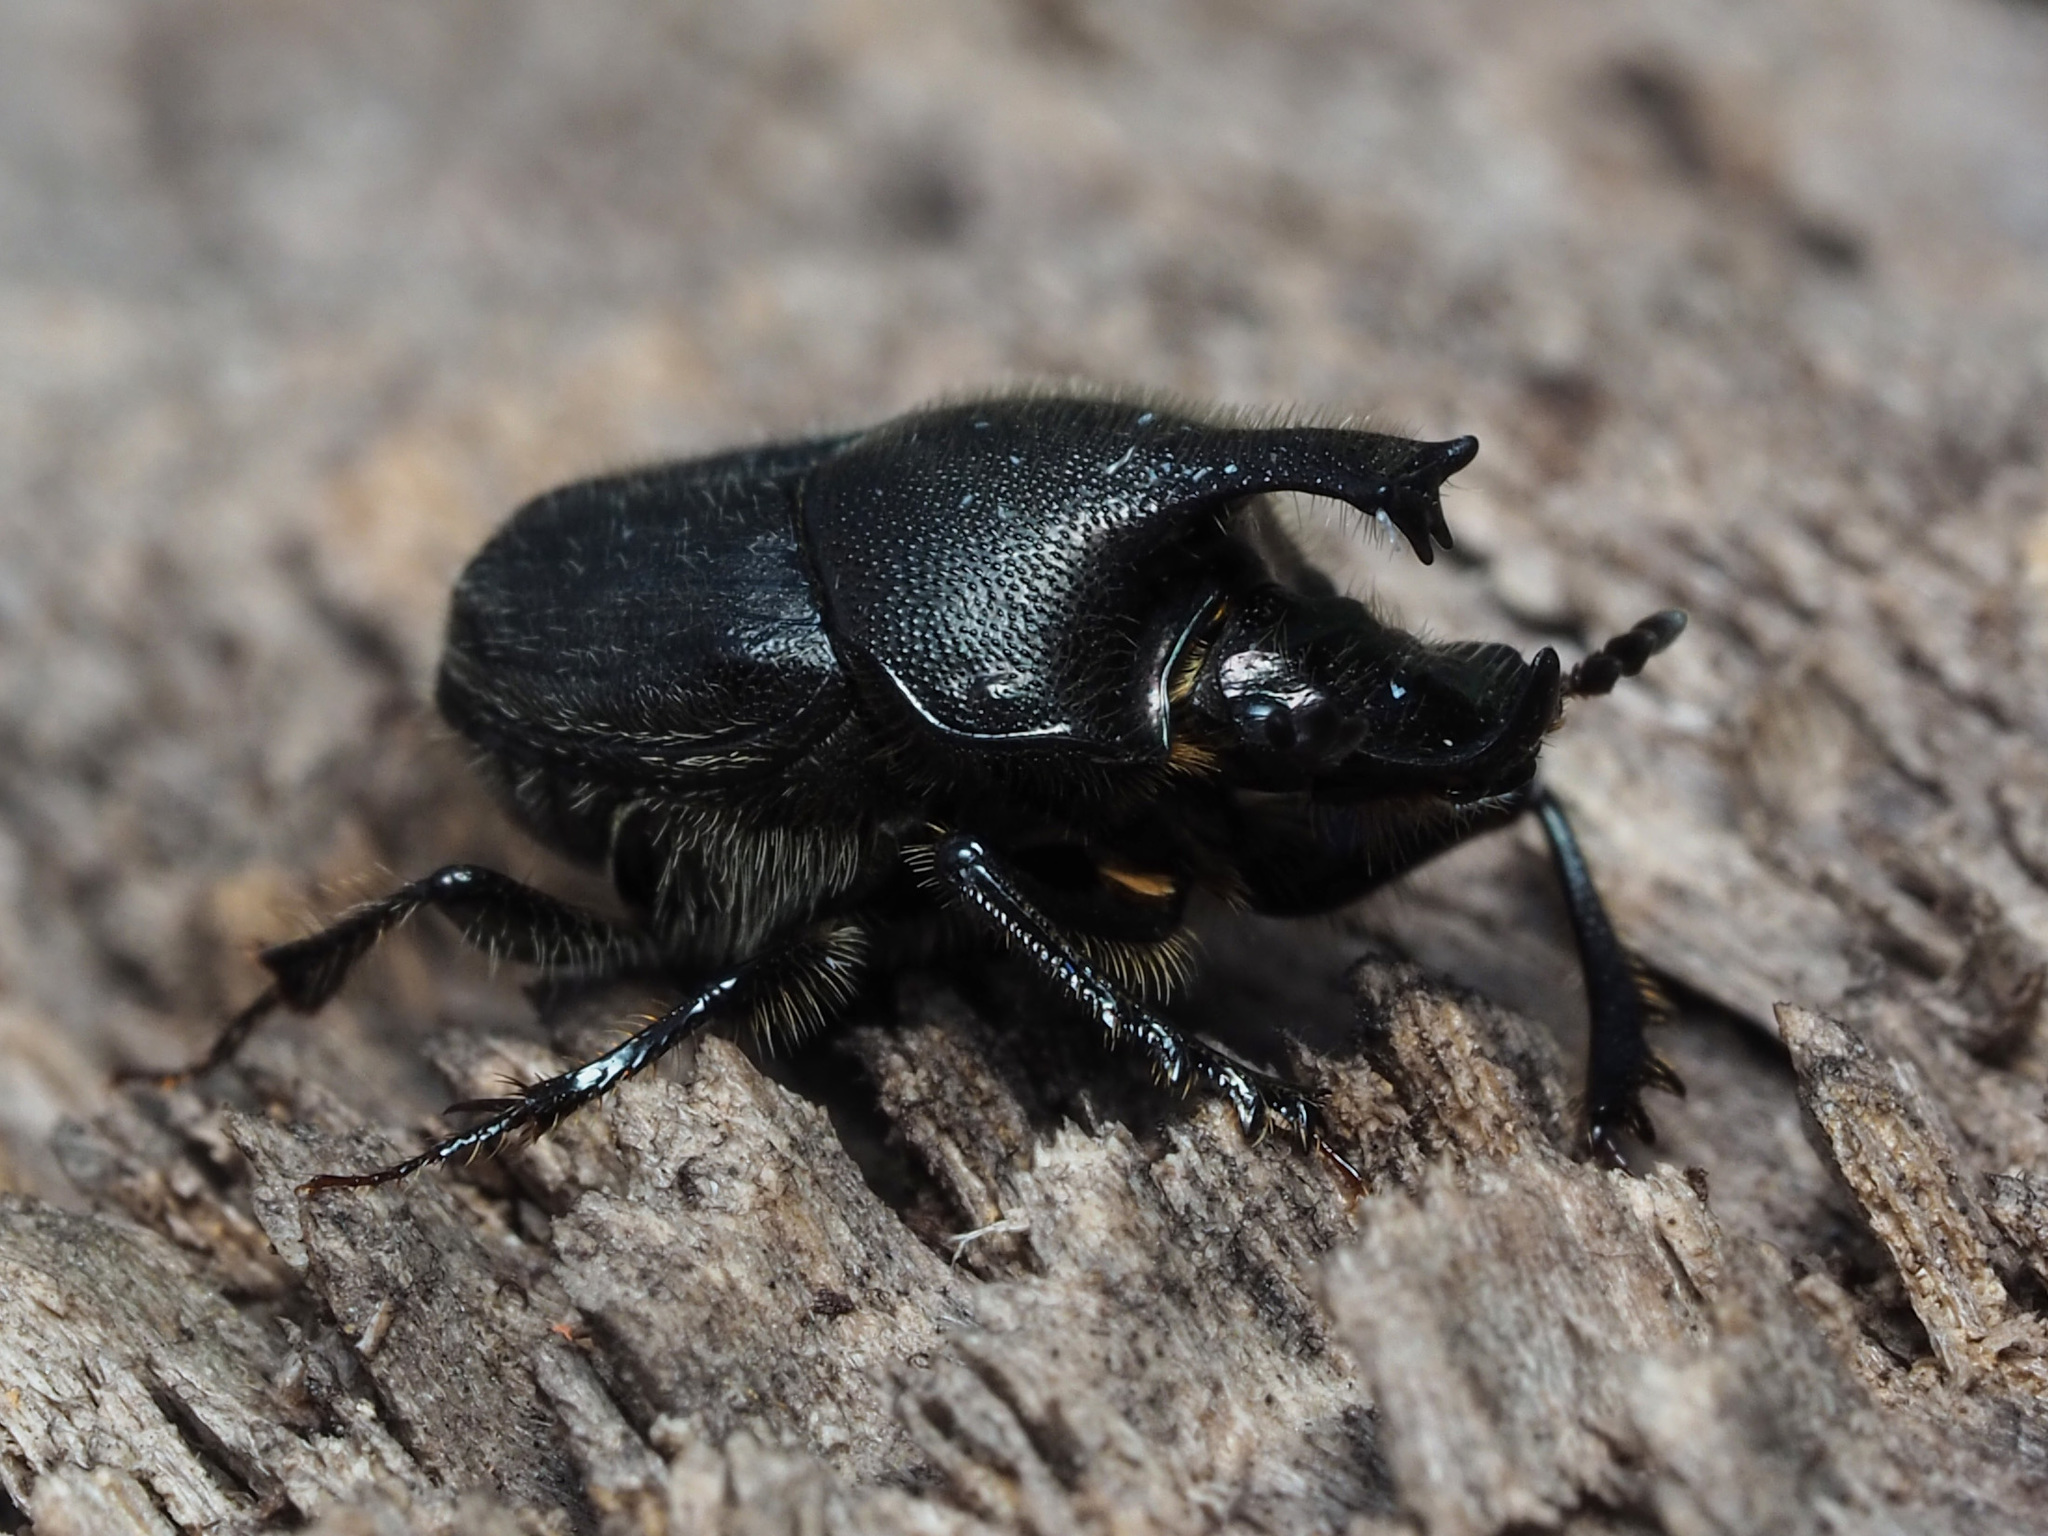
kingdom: Animalia
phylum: Arthropoda
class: Insecta
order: Coleoptera
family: Scarabaeidae
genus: Onthophagus
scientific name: Onthophagus hecate
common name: Scooped scarab
